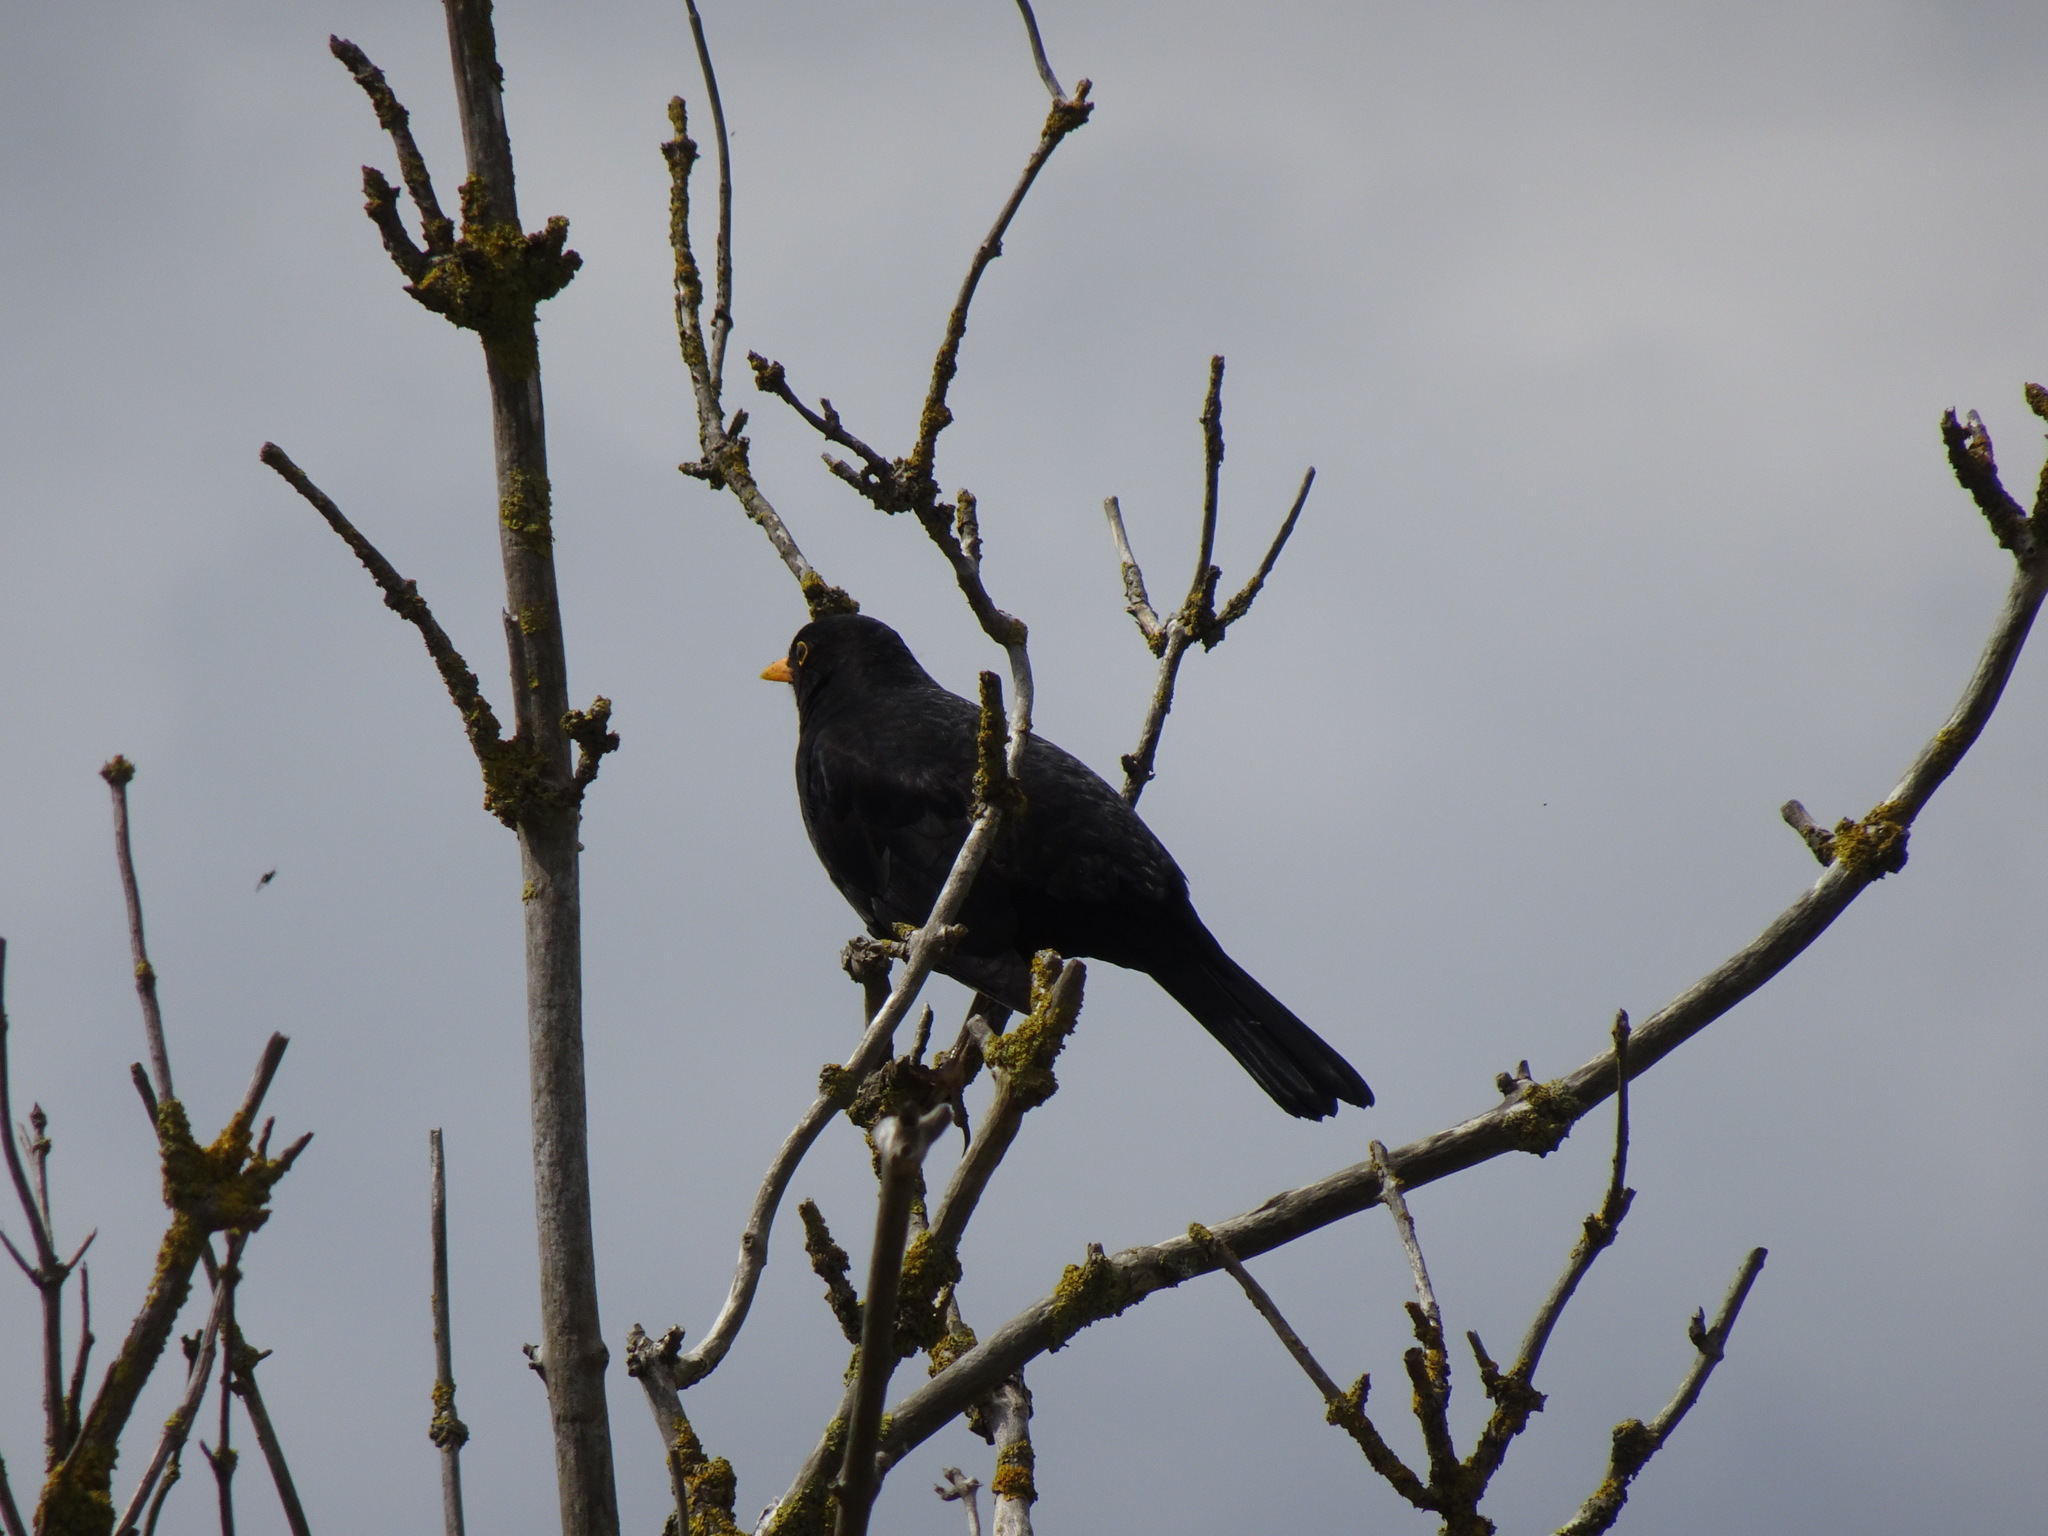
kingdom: Animalia
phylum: Chordata
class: Aves
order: Passeriformes
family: Turdidae
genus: Turdus
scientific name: Turdus merula
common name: Common blackbird
